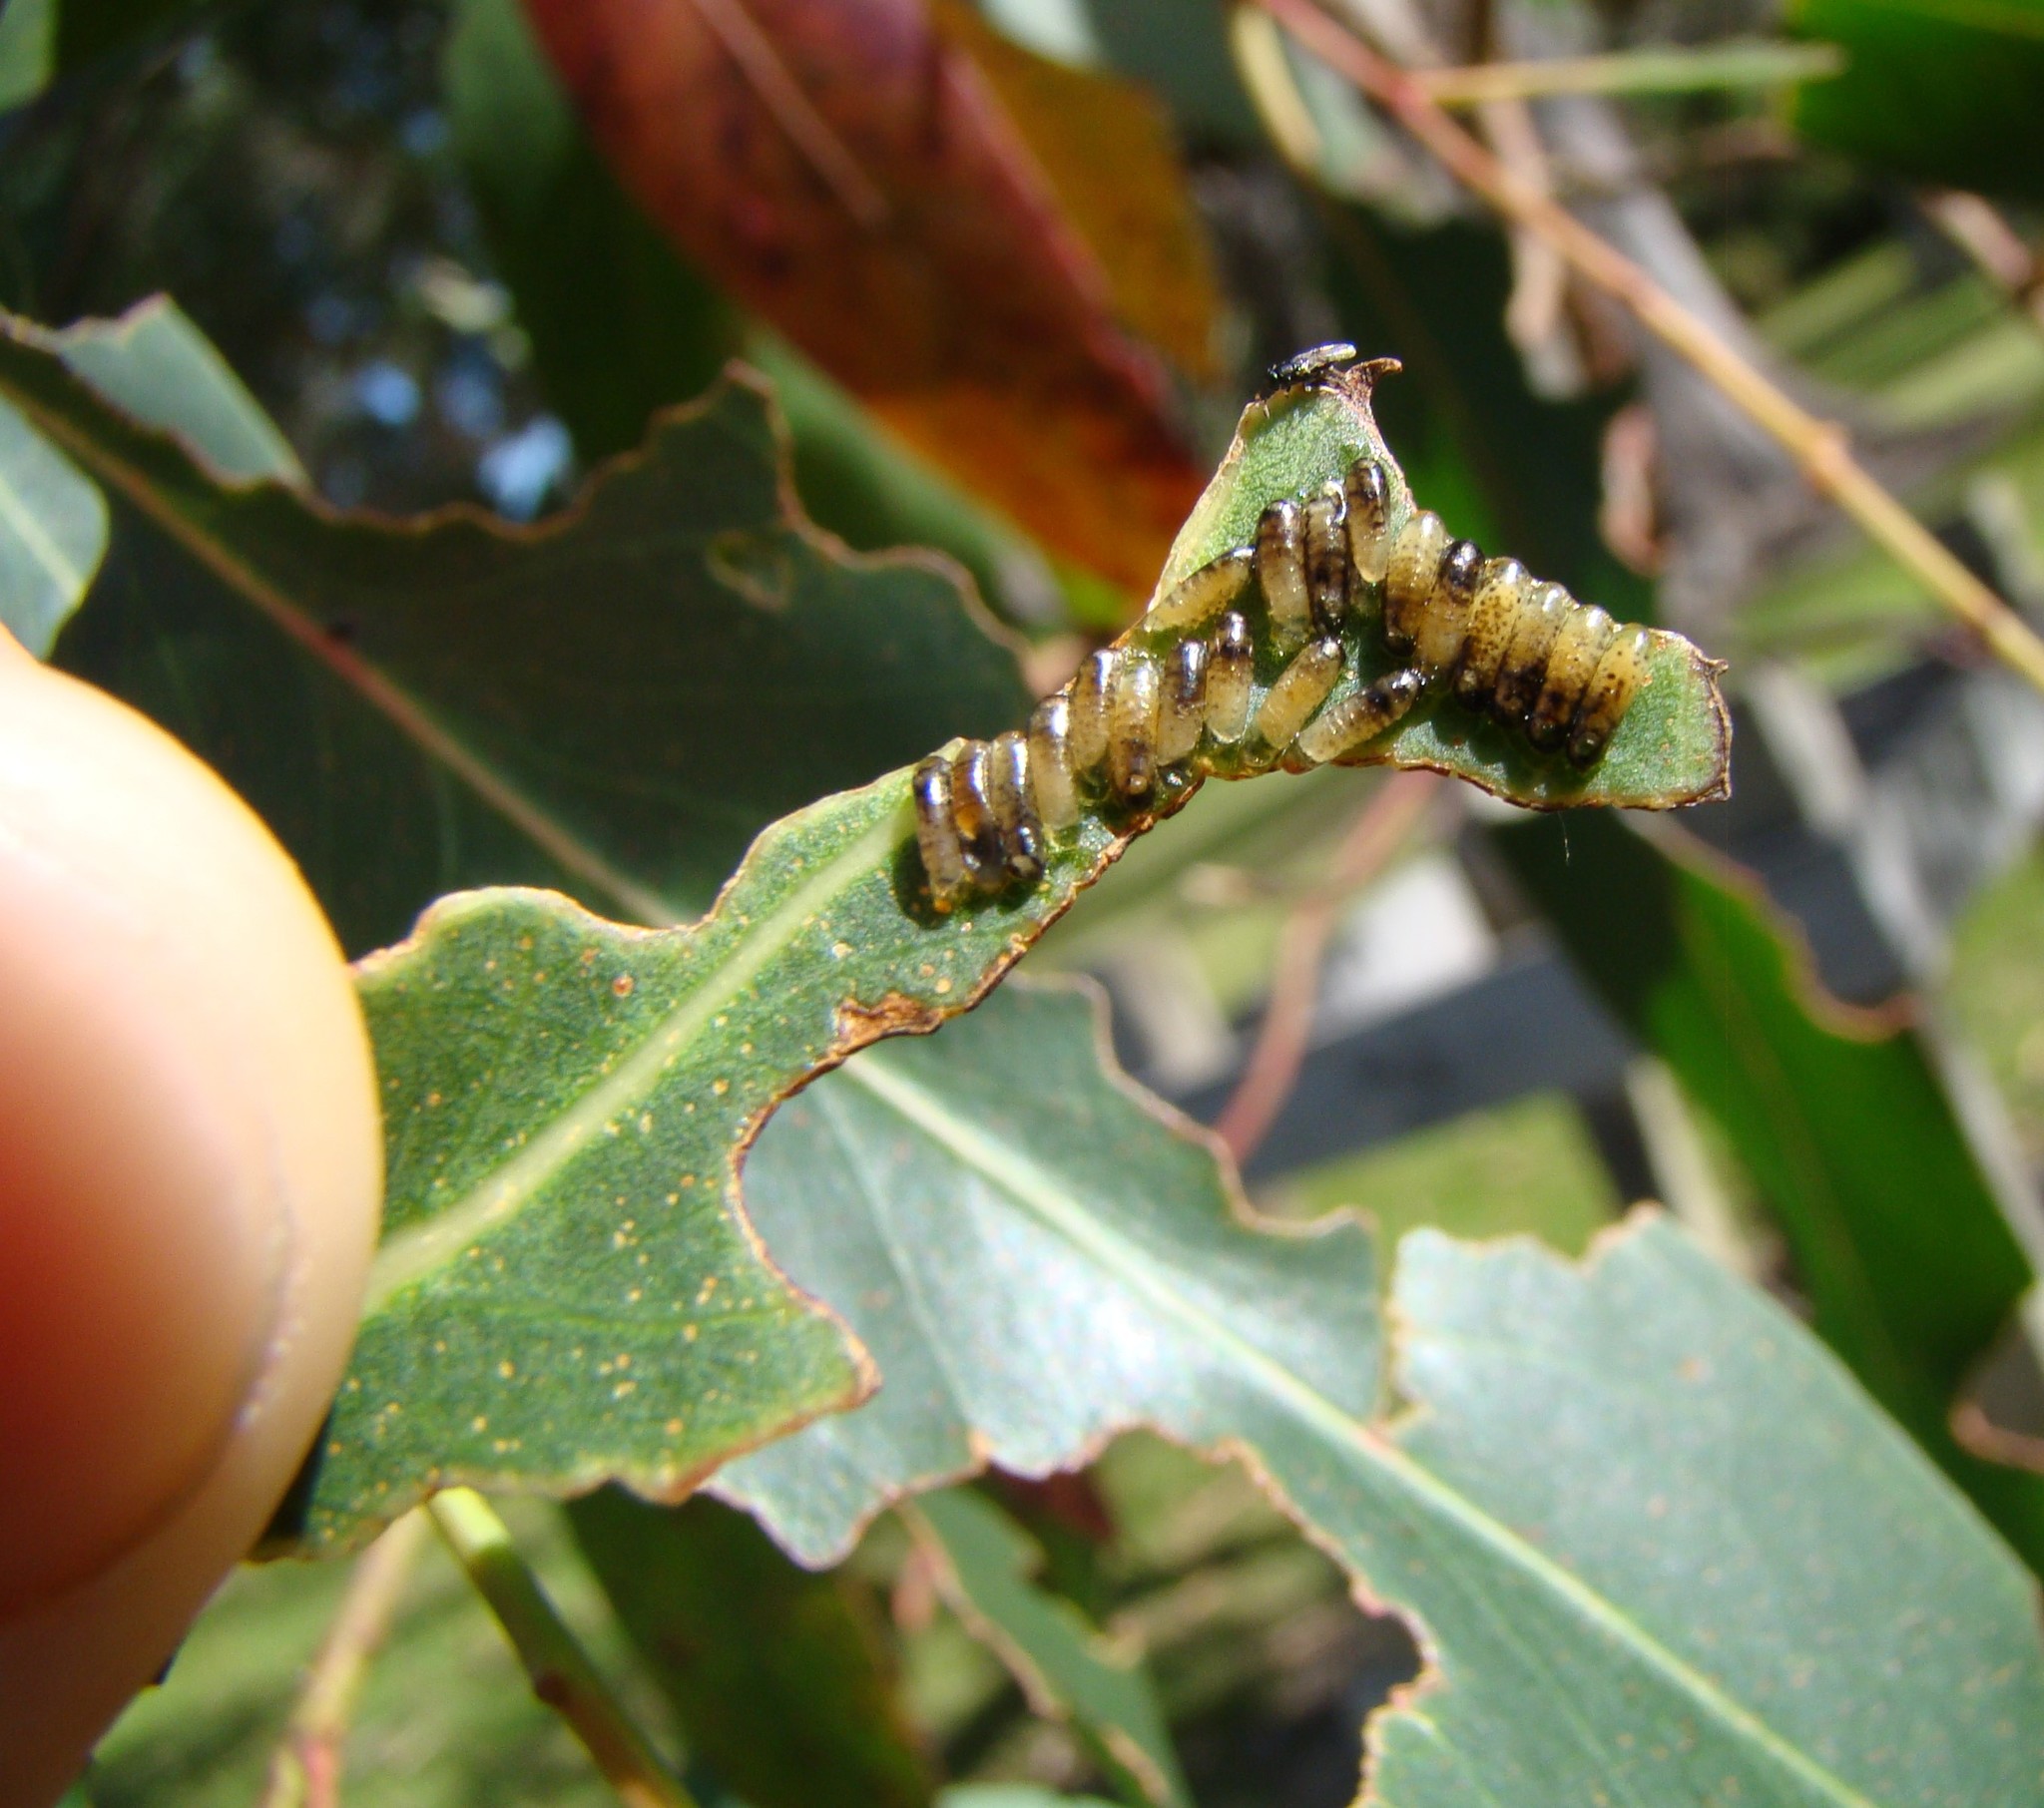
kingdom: Animalia
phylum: Arthropoda
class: Insecta
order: Coleoptera
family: Chrysomelidae
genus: Paropsis
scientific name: Paropsis charybdis
